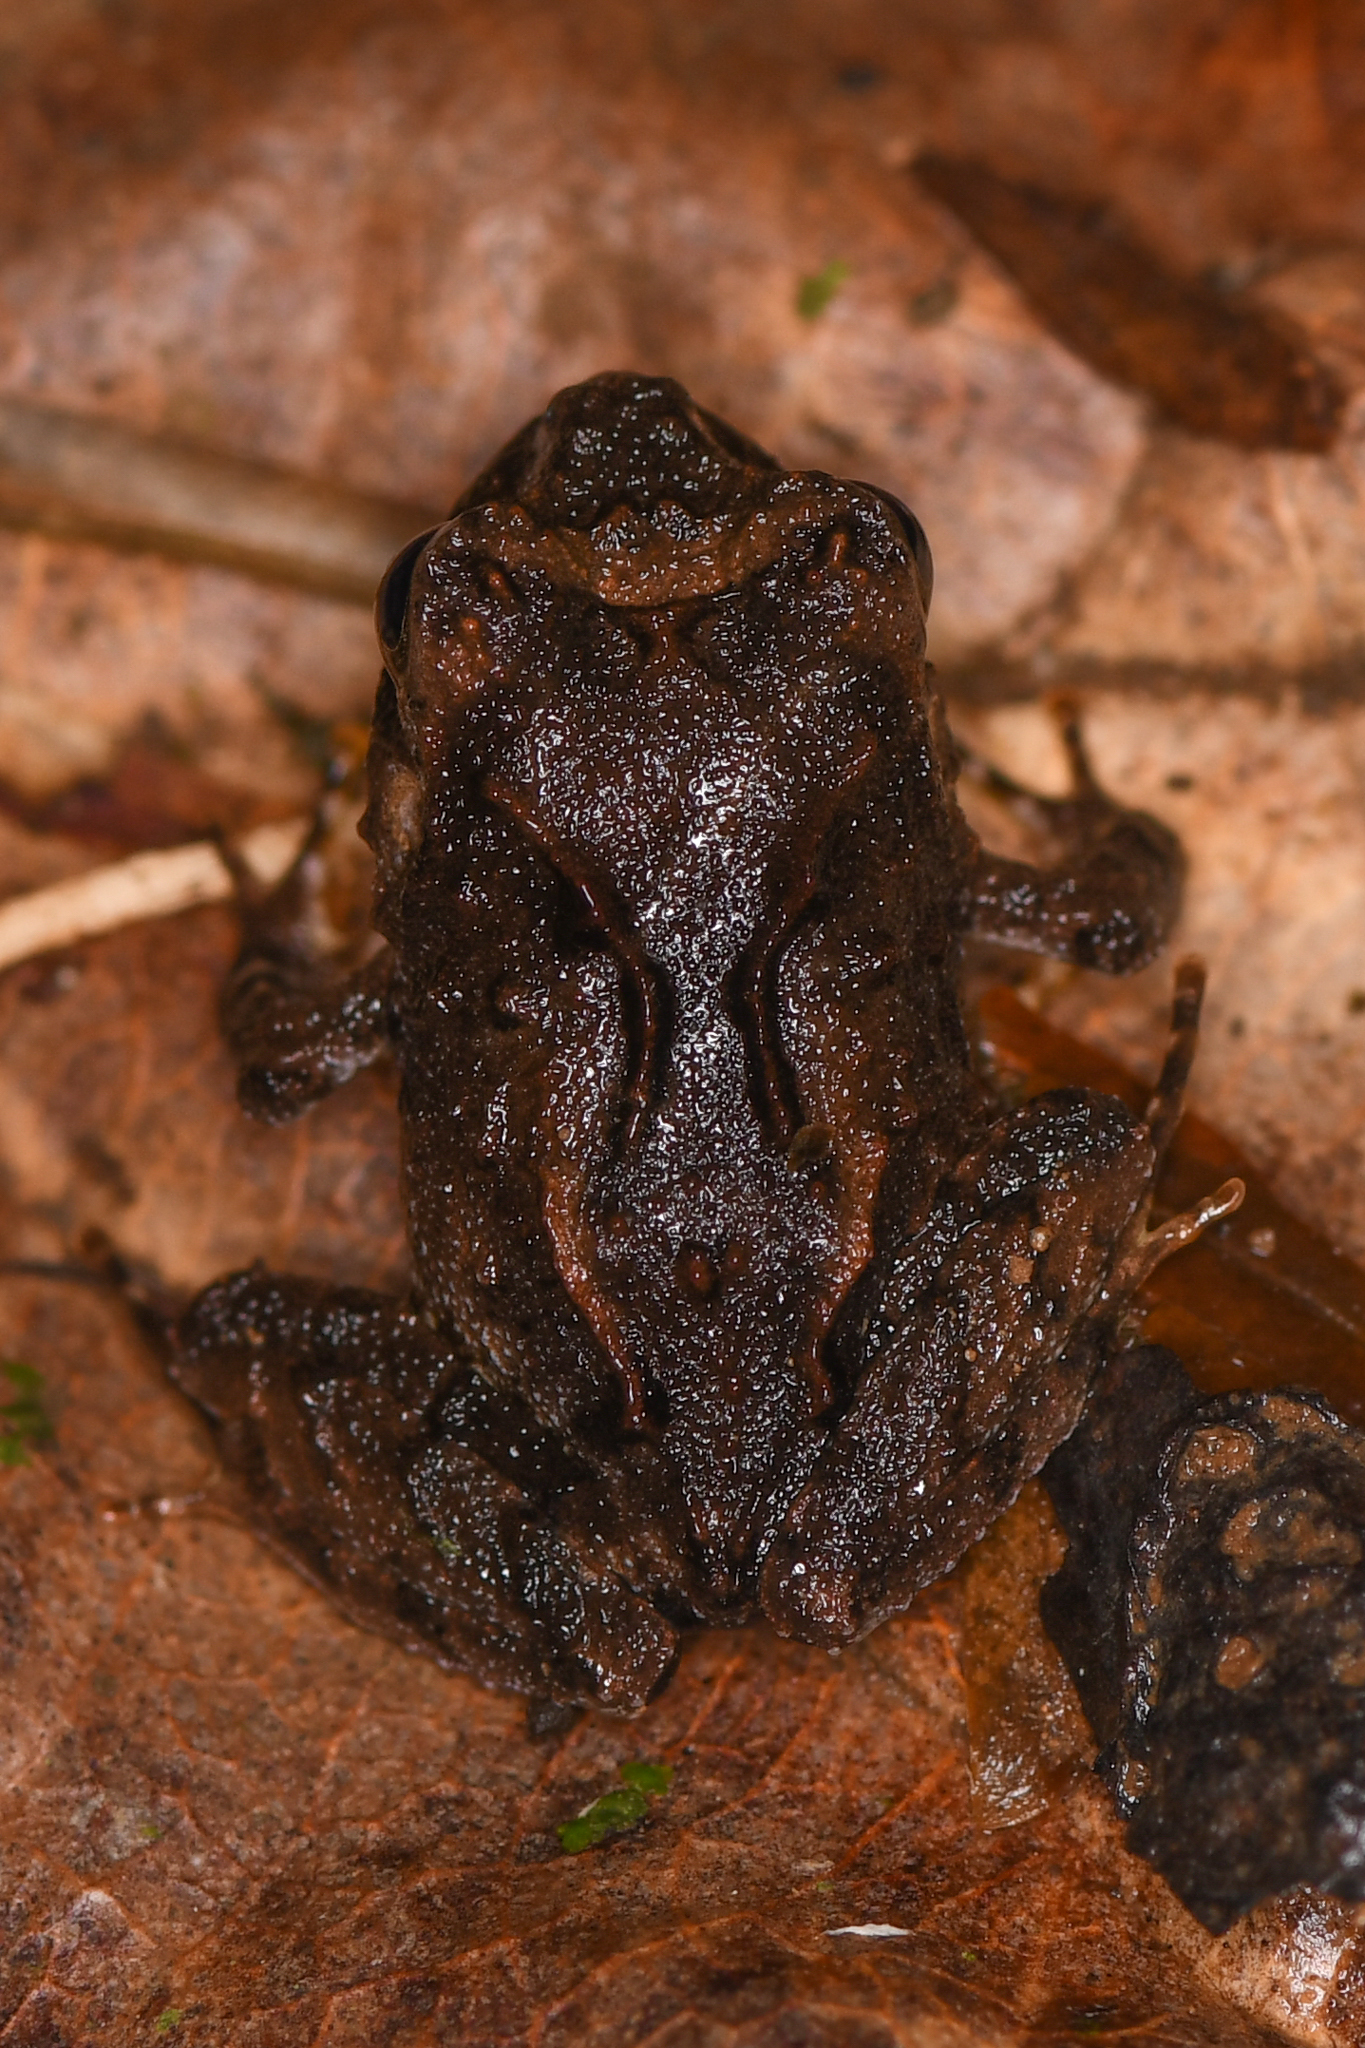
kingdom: Animalia
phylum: Chordata
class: Amphibia
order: Anura
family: Craugastoridae
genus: Craugastor
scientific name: Craugastor megacephalus
